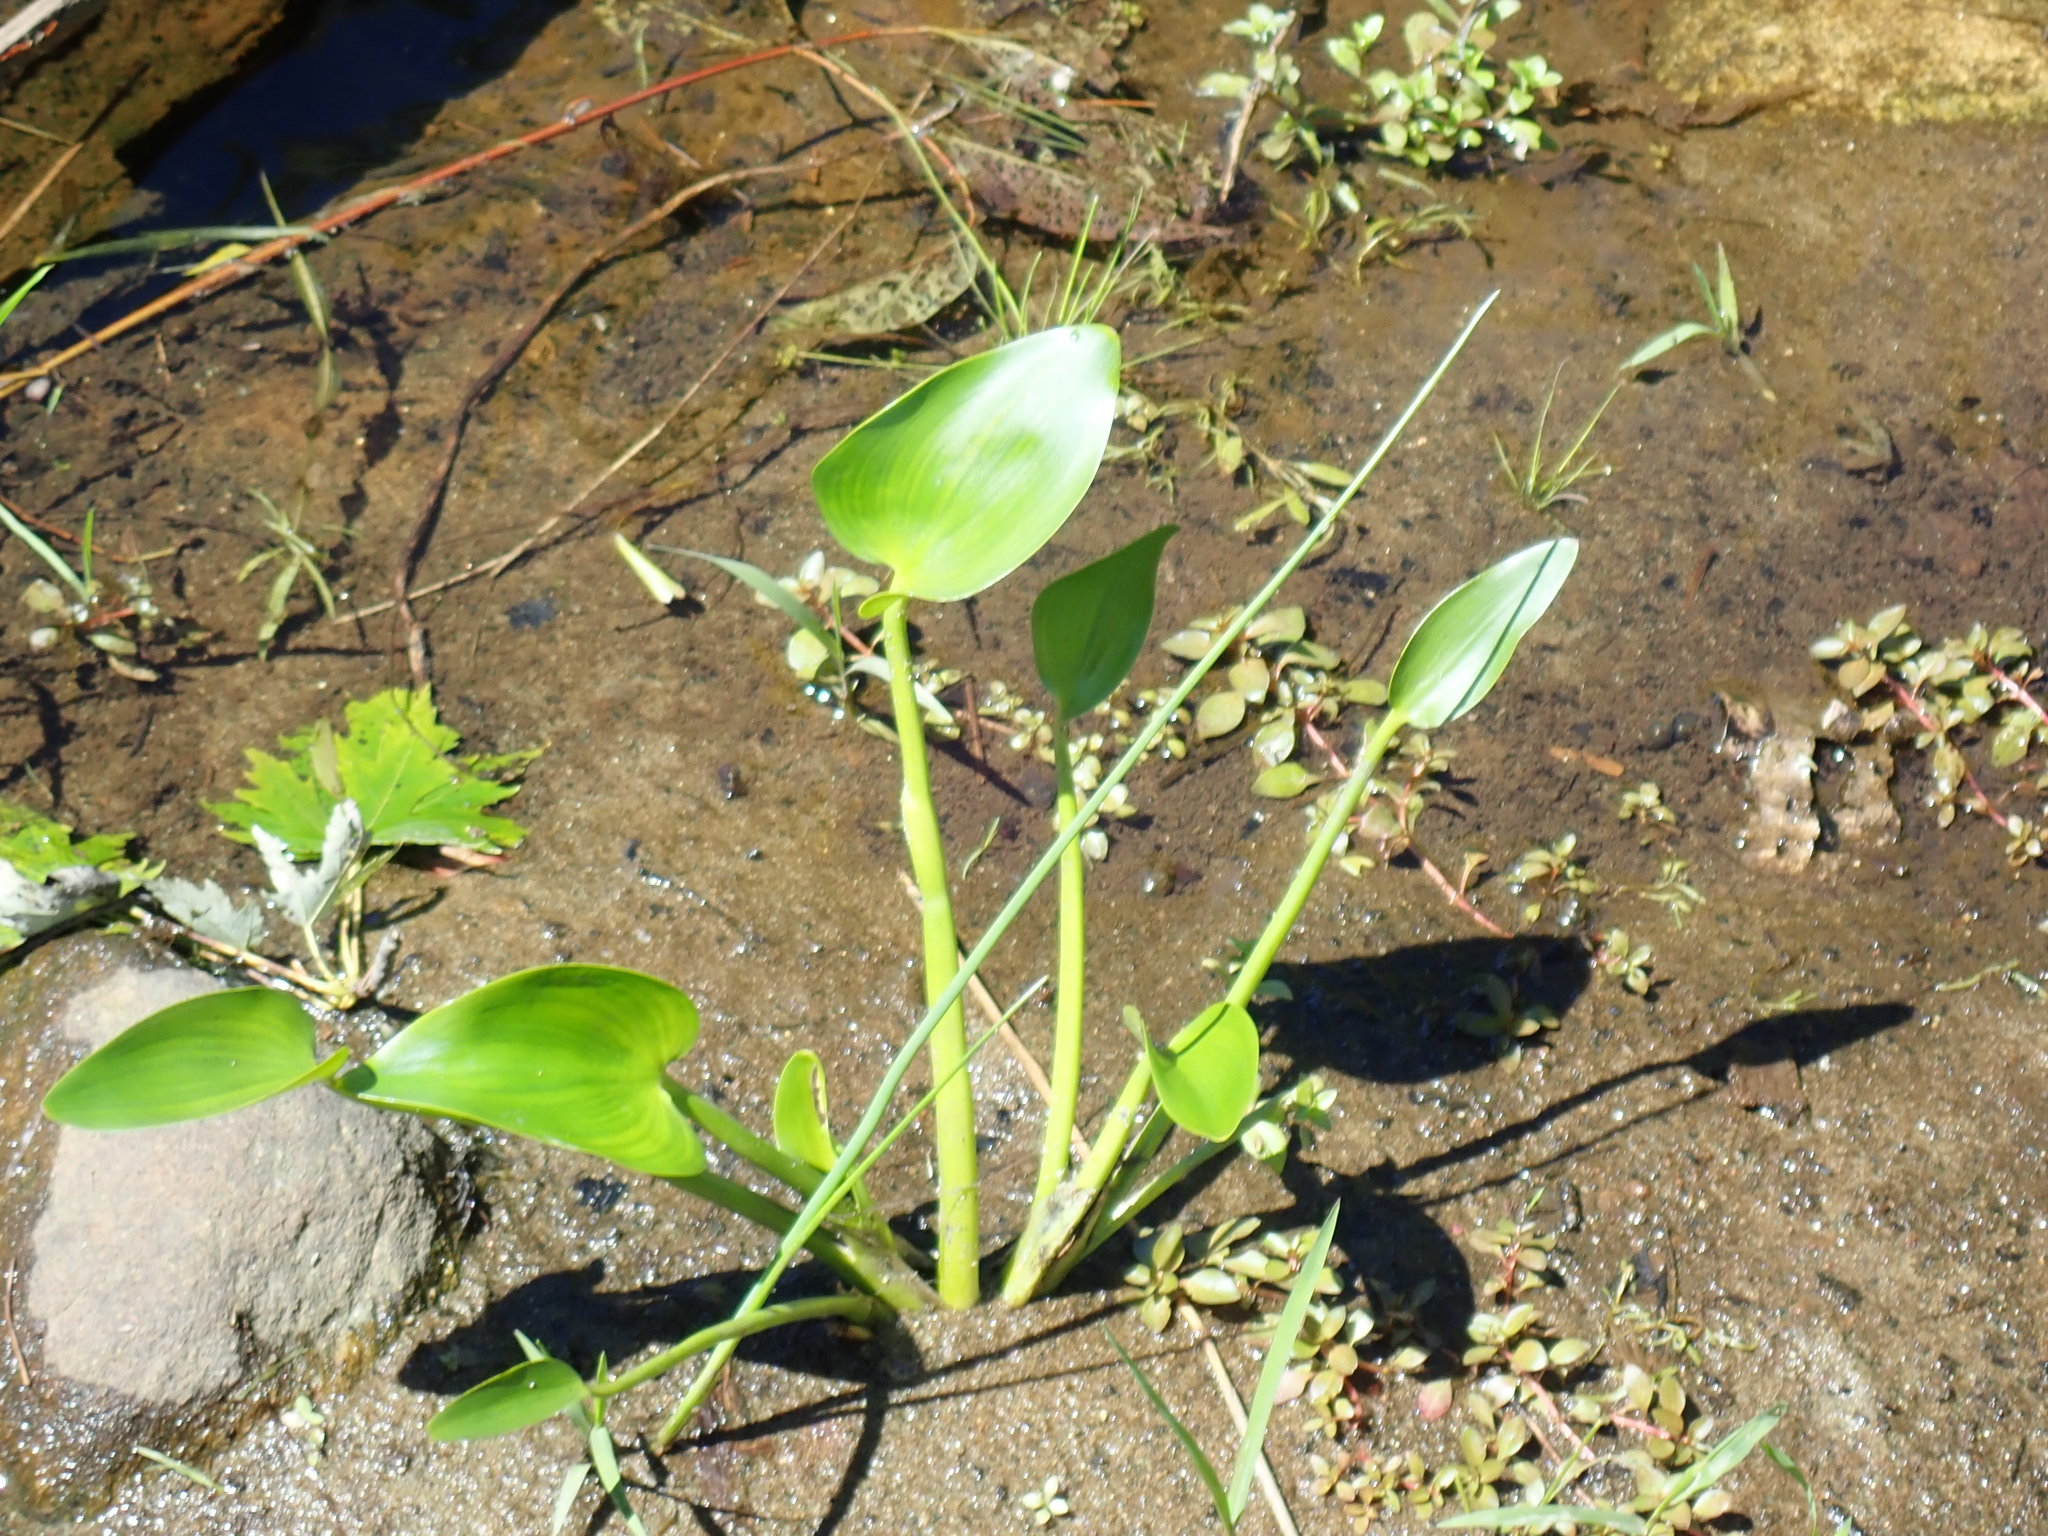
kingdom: Plantae
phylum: Tracheophyta
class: Liliopsida
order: Commelinales
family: Pontederiaceae
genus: Pontederia
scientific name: Pontederia cordata
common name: Pickerelweed
